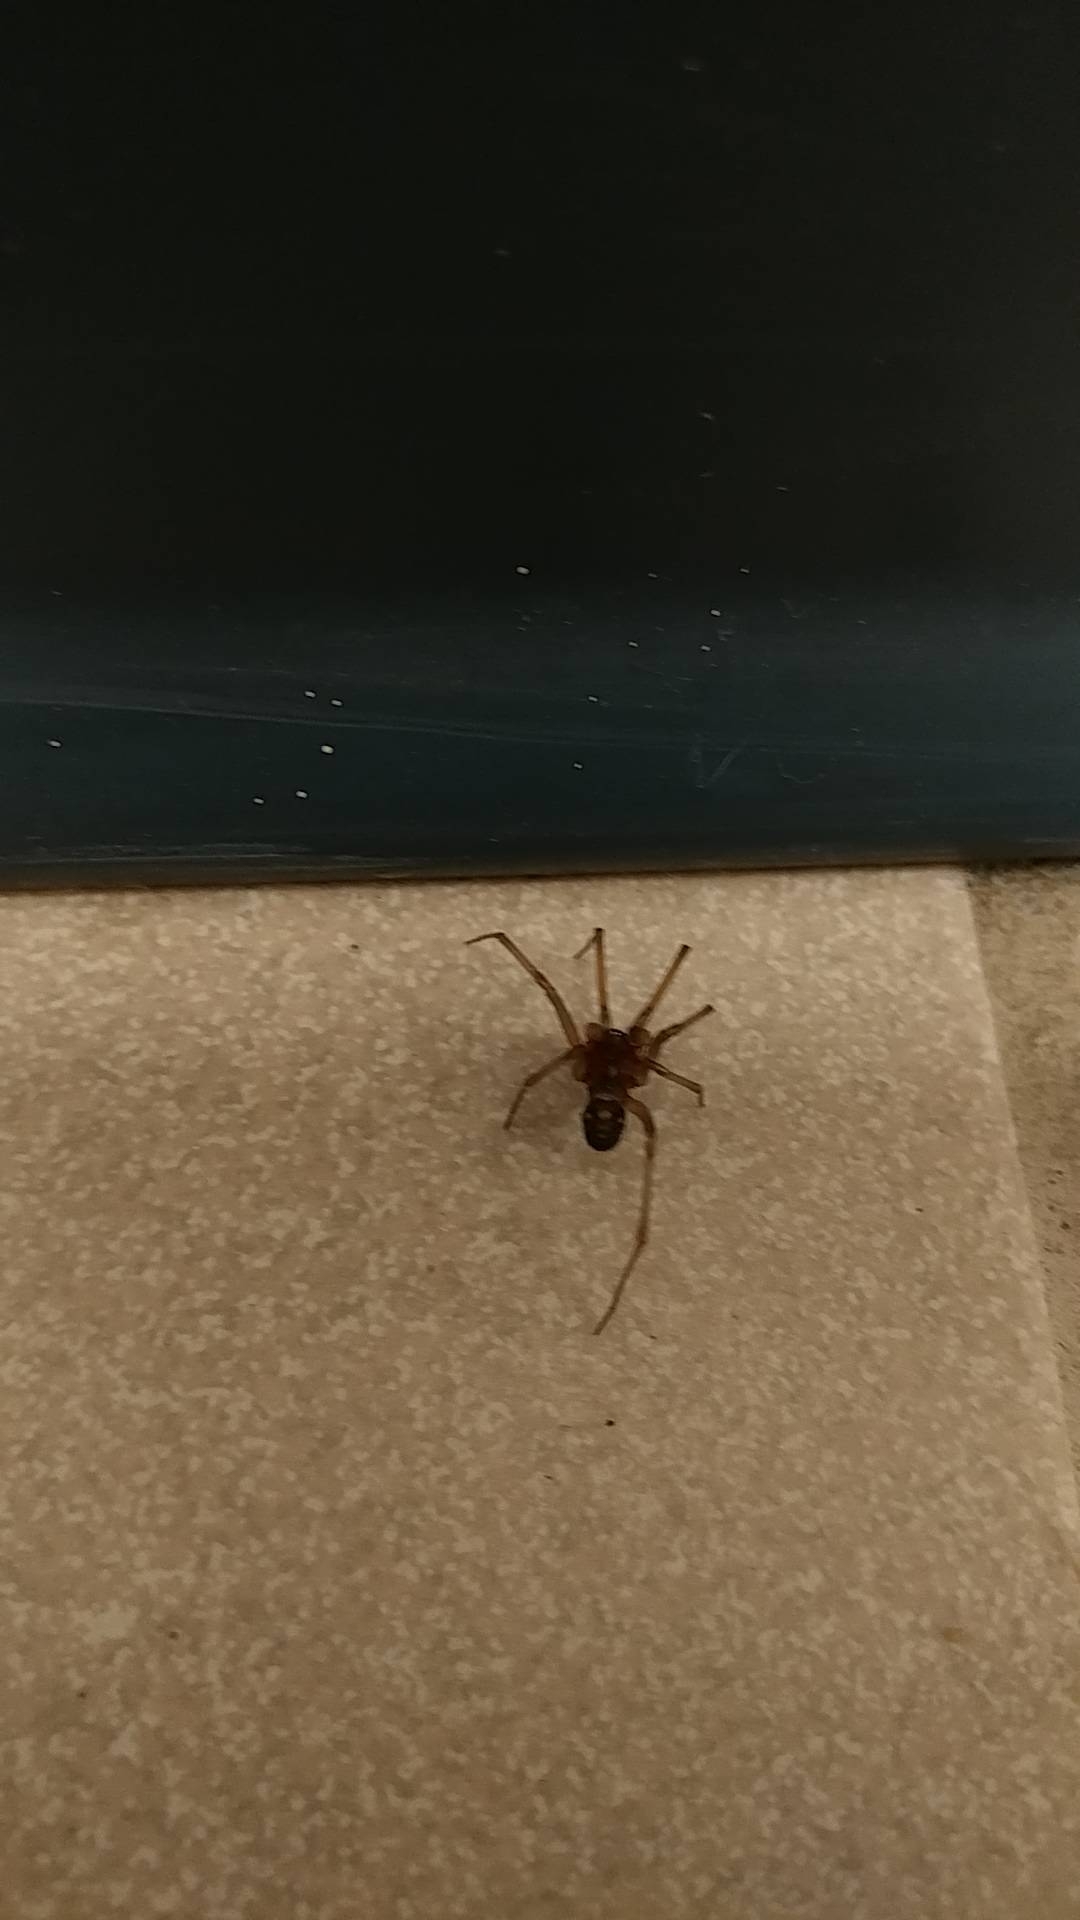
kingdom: Animalia
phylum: Arthropoda
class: Arachnida
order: Araneae
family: Theridiidae
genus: Steatoda
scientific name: Steatoda grossa
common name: False black widow
